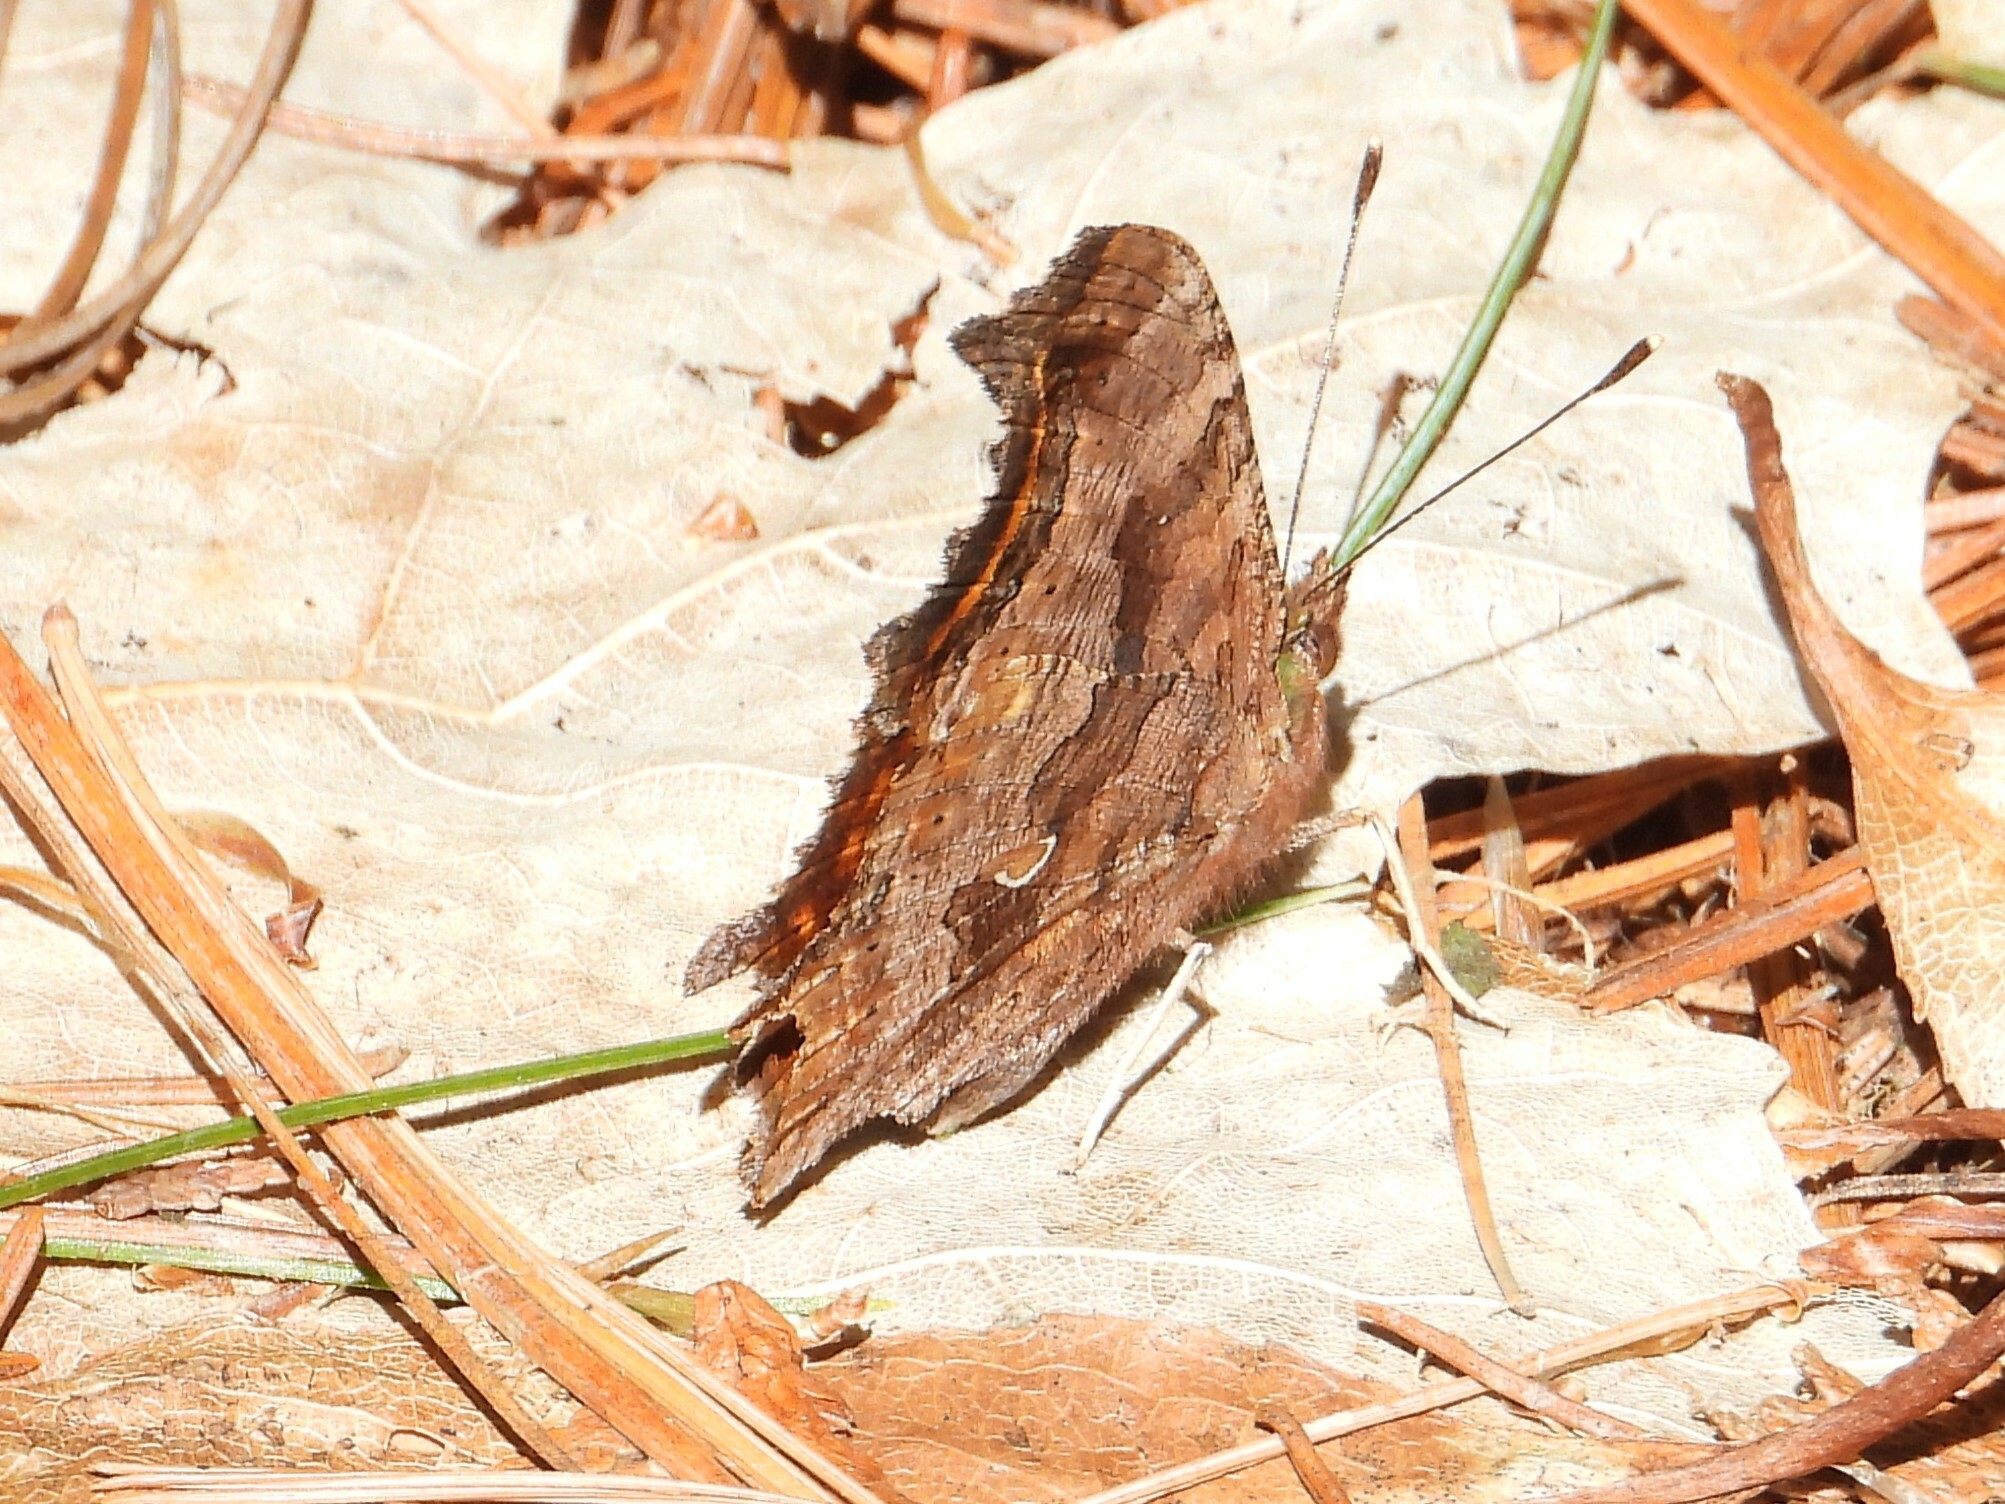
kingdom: Animalia
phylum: Arthropoda
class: Insecta
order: Lepidoptera
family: Nymphalidae
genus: Polygonia
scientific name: Polygonia comma
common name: Eastern comma
